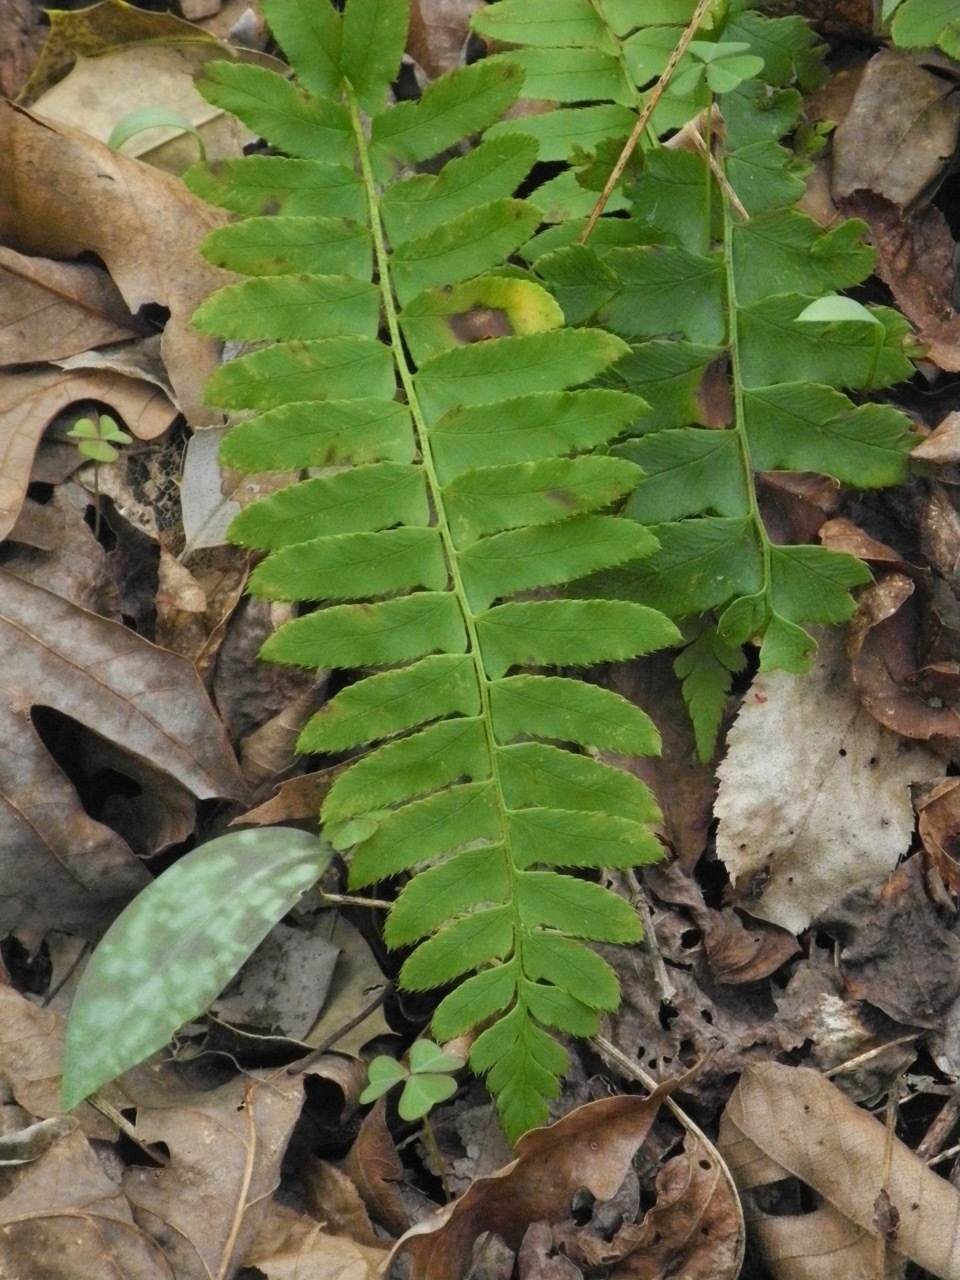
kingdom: Plantae
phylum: Tracheophyta
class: Polypodiopsida
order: Polypodiales
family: Dryopteridaceae
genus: Polystichum
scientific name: Polystichum acrostichoides
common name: Christmas fern
